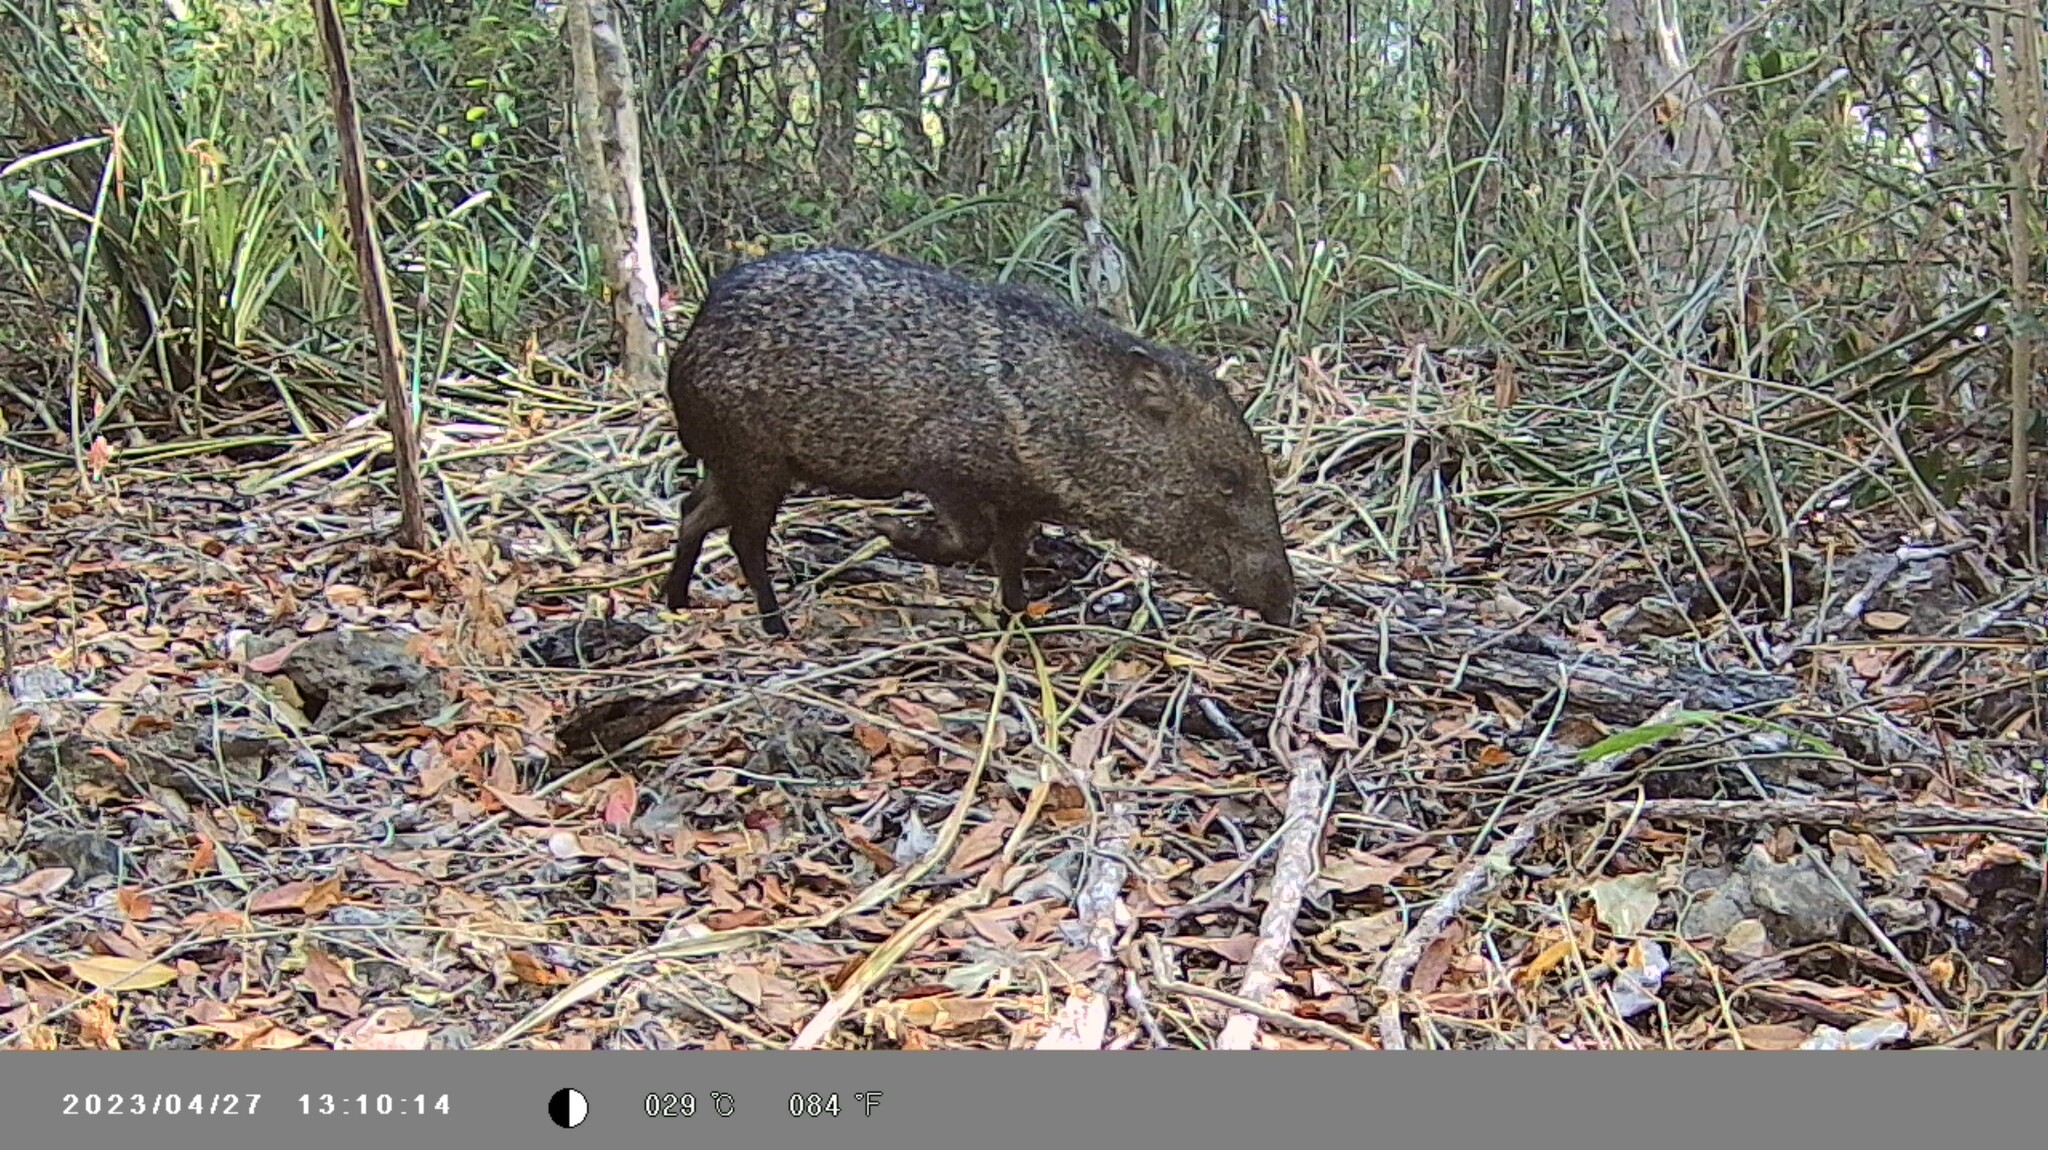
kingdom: Animalia
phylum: Chordata
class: Mammalia
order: Artiodactyla
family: Tayassuidae
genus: Pecari
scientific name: Pecari tajacu
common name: Collared peccary
